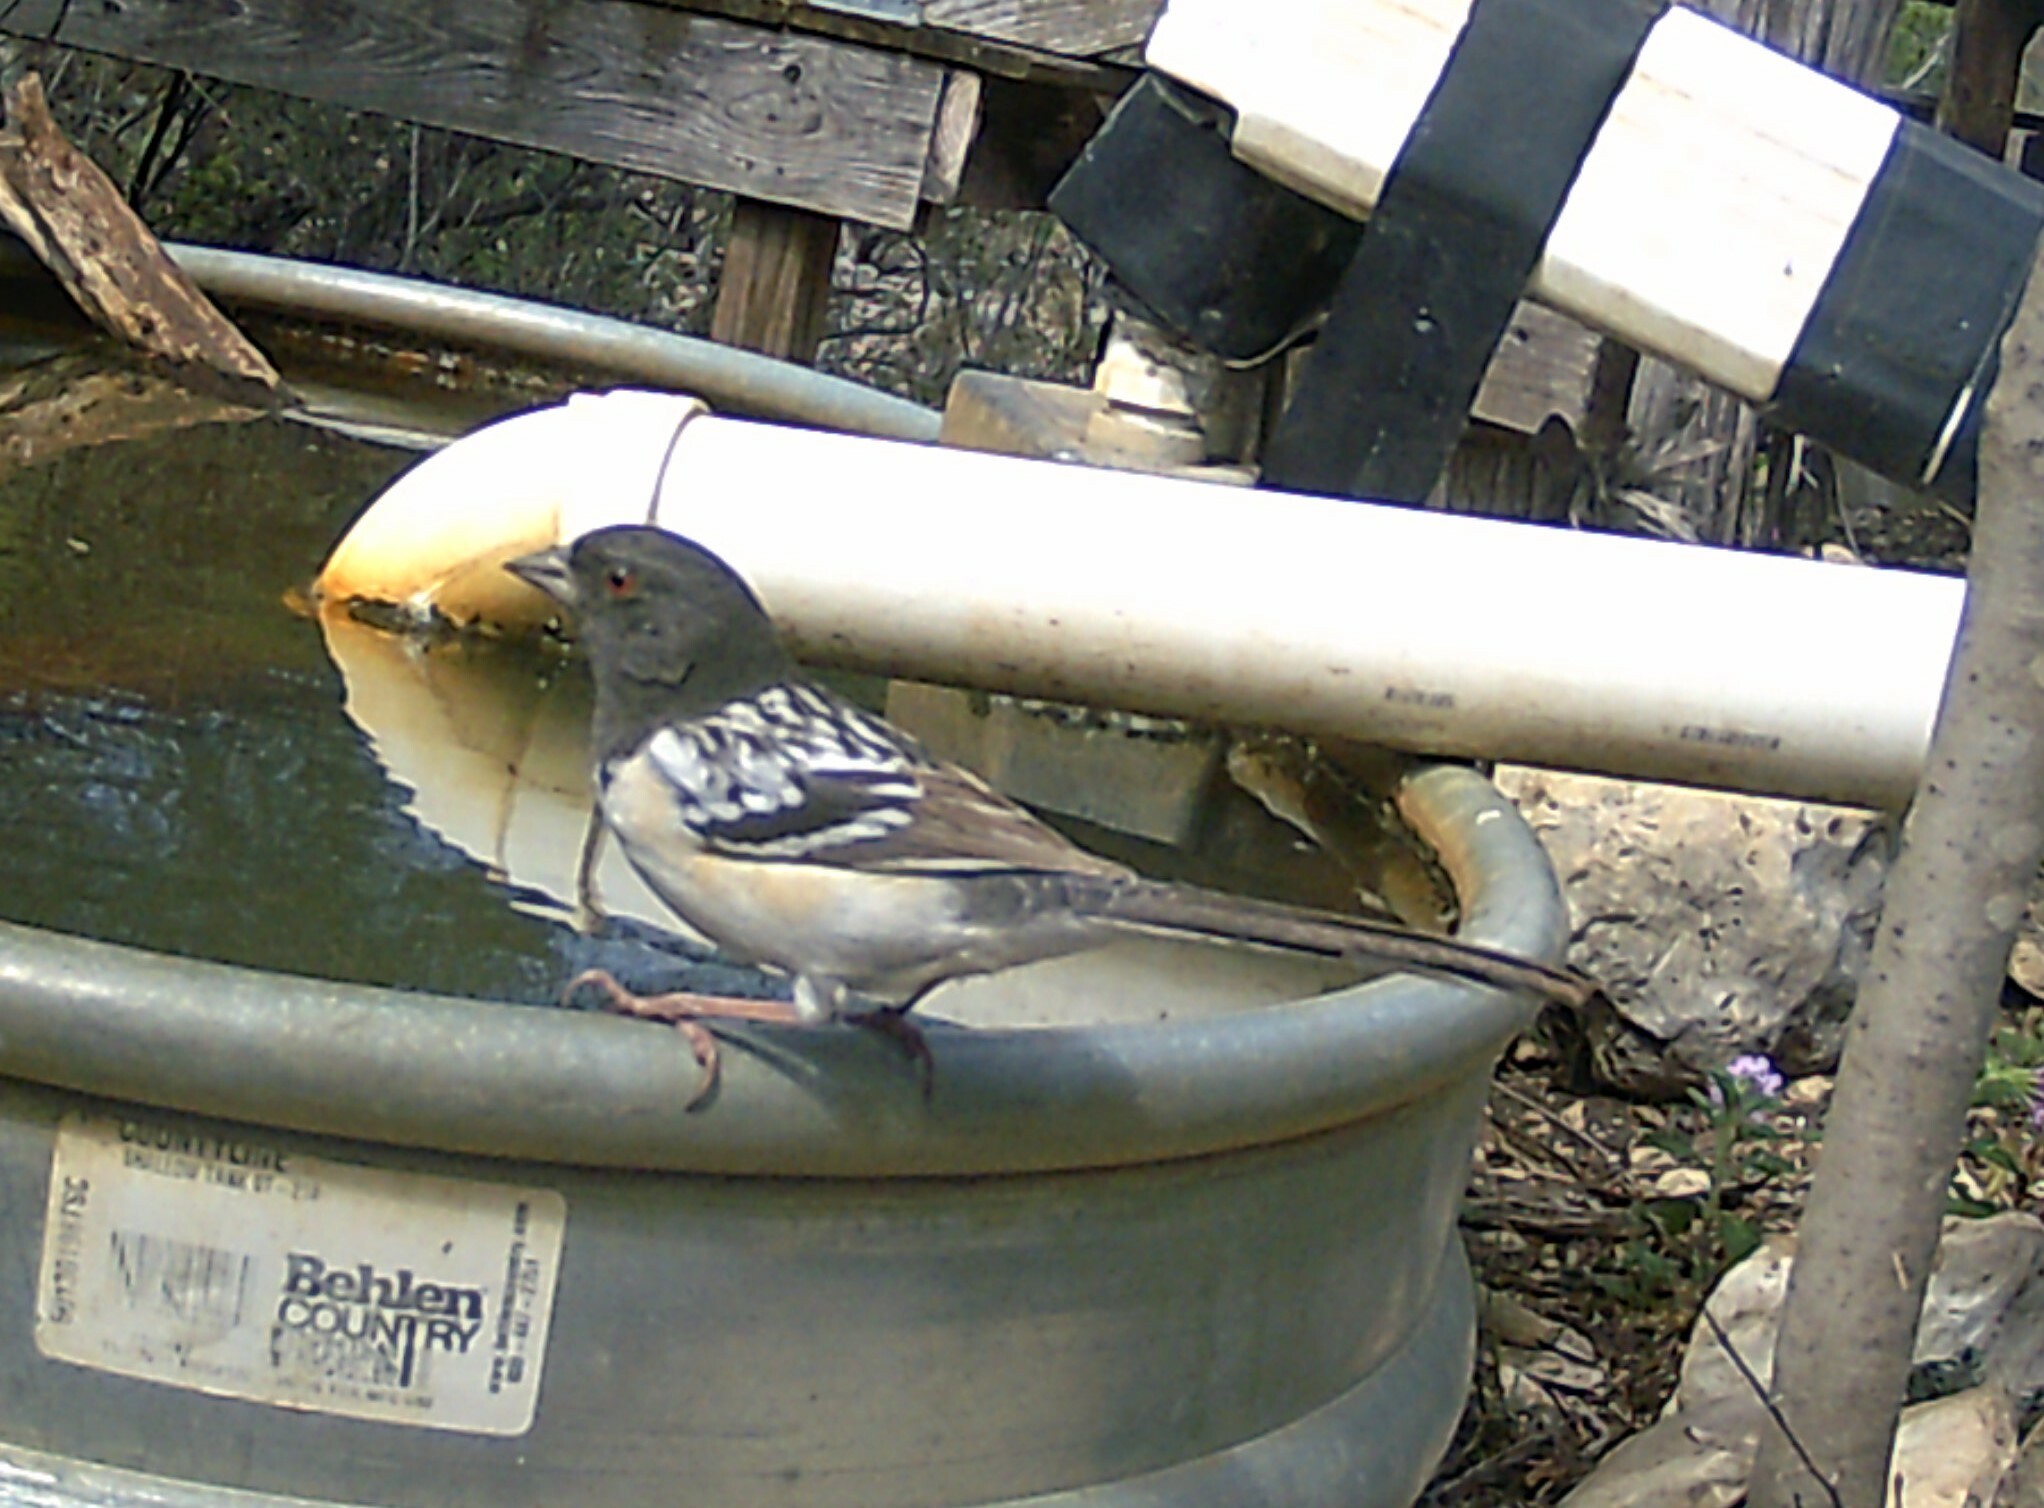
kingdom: Animalia
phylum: Chordata
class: Aves
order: Passeriformes
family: Passerellidae
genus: Pipilo
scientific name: Pipilo maculatus
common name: Spotted towhee
